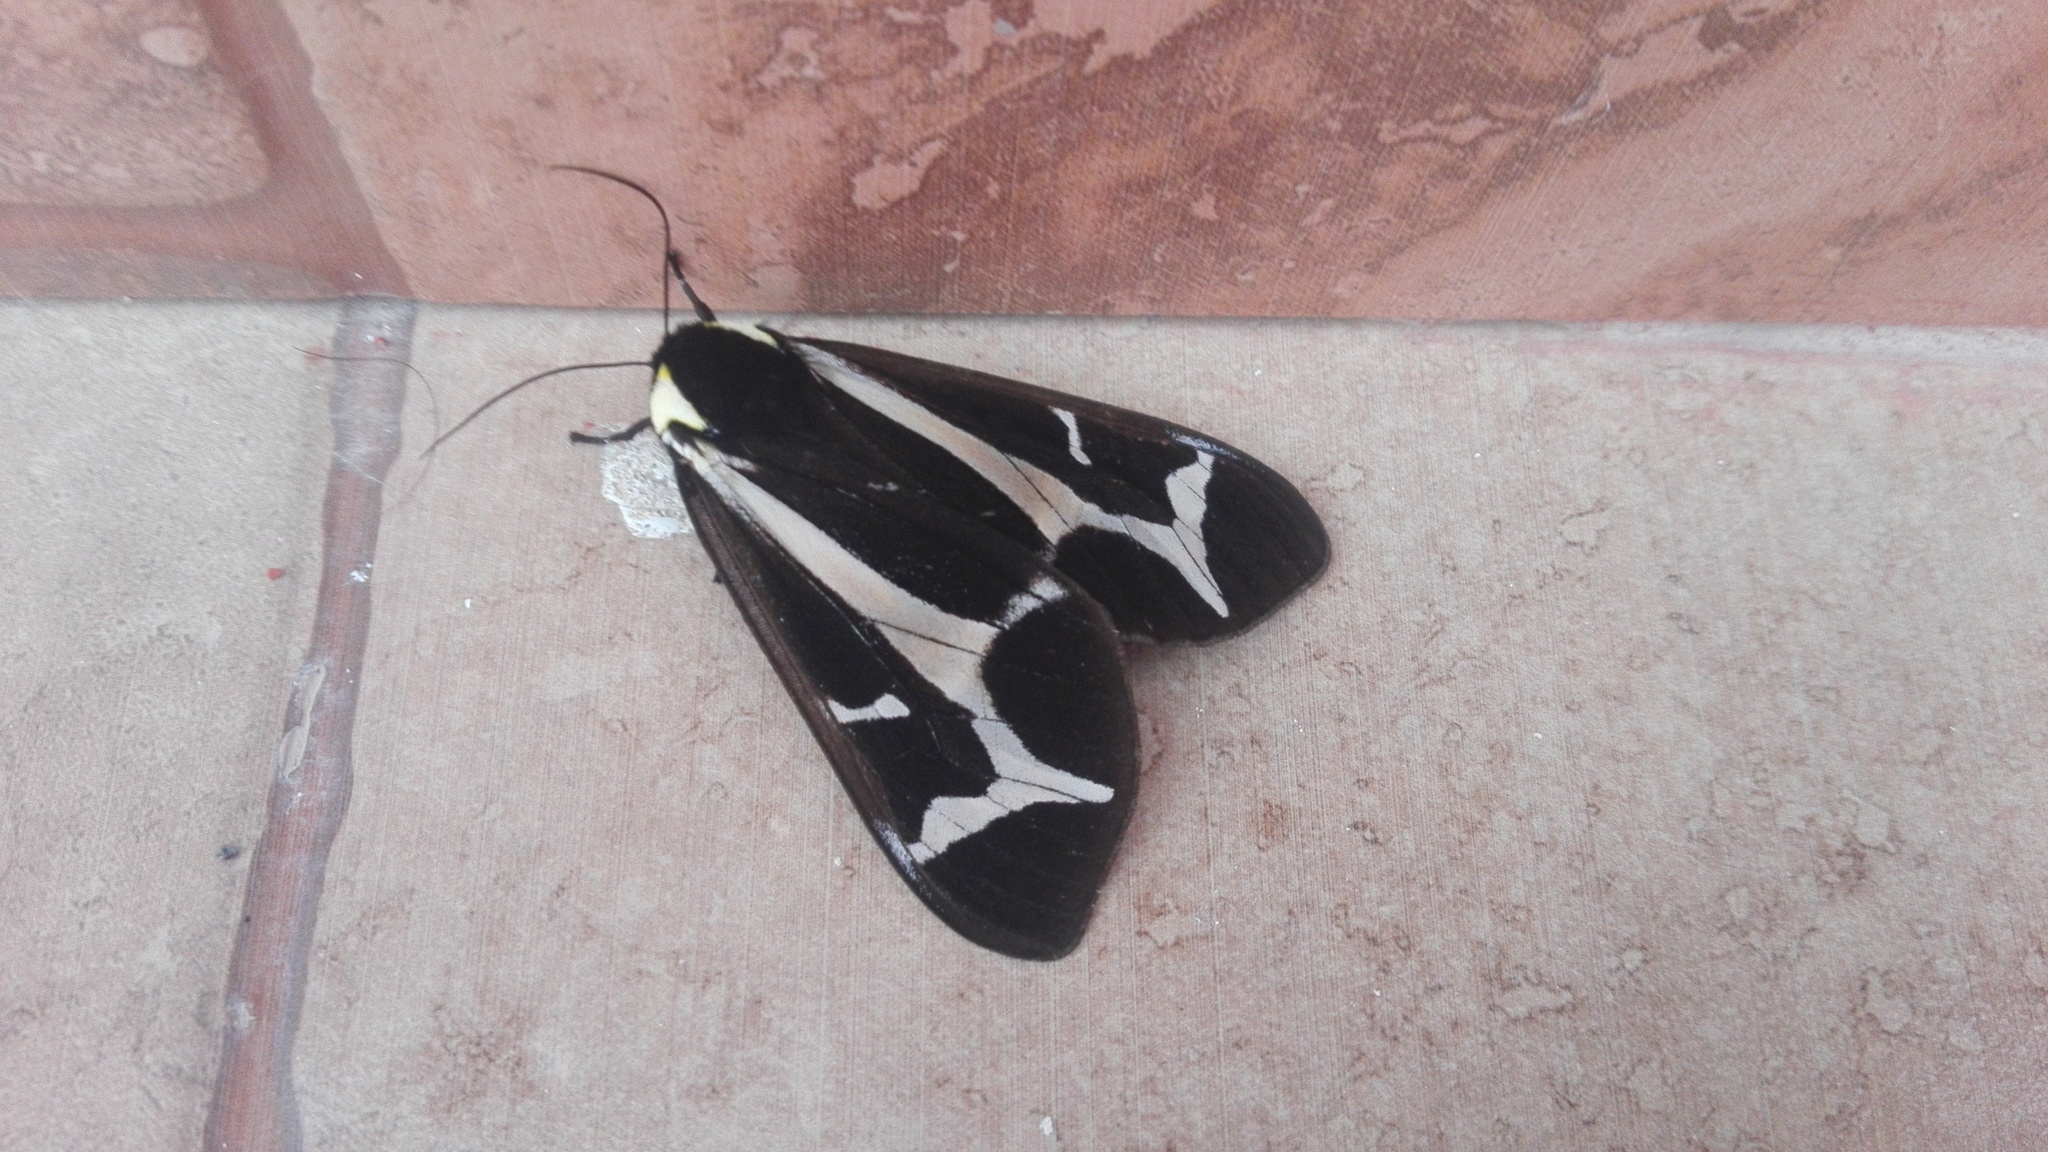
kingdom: Animalia
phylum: Arthropoda
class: Insecta
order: Lepidoptera
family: Erebidae
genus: Dysschema
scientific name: Dysschema howardi
